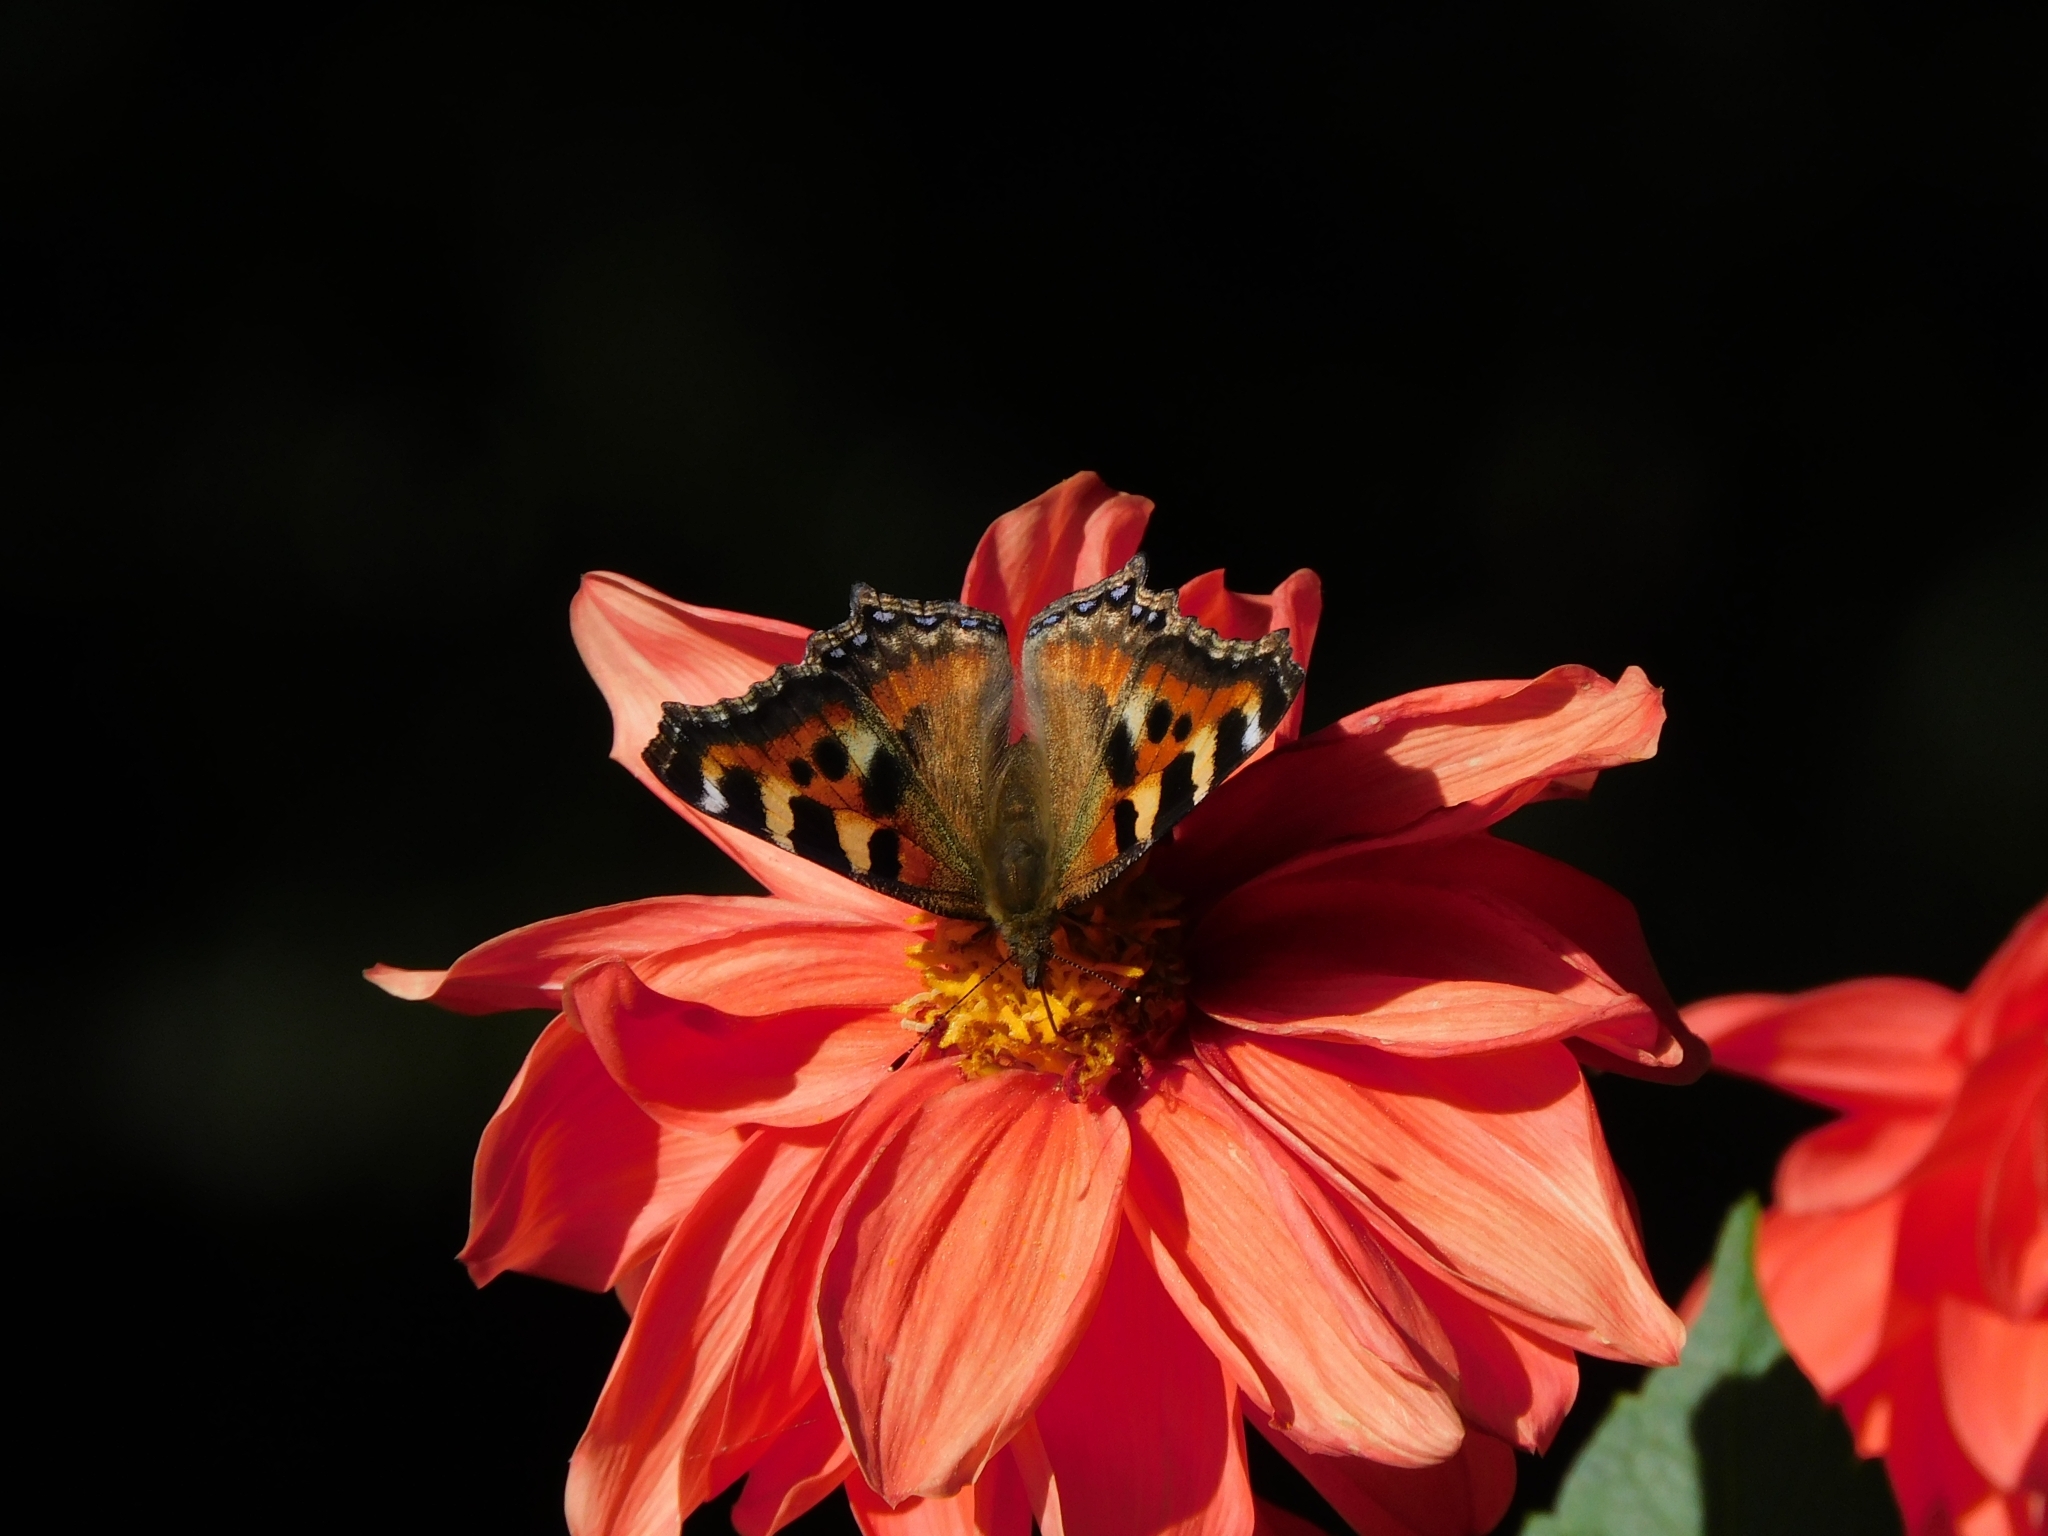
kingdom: Animalia
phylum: Arthropoda
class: Insecta
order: Lepidoptera
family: Nymphalidae
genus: Aglais
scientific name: Aglais caschmirensis
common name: Indian tortoiseshell
